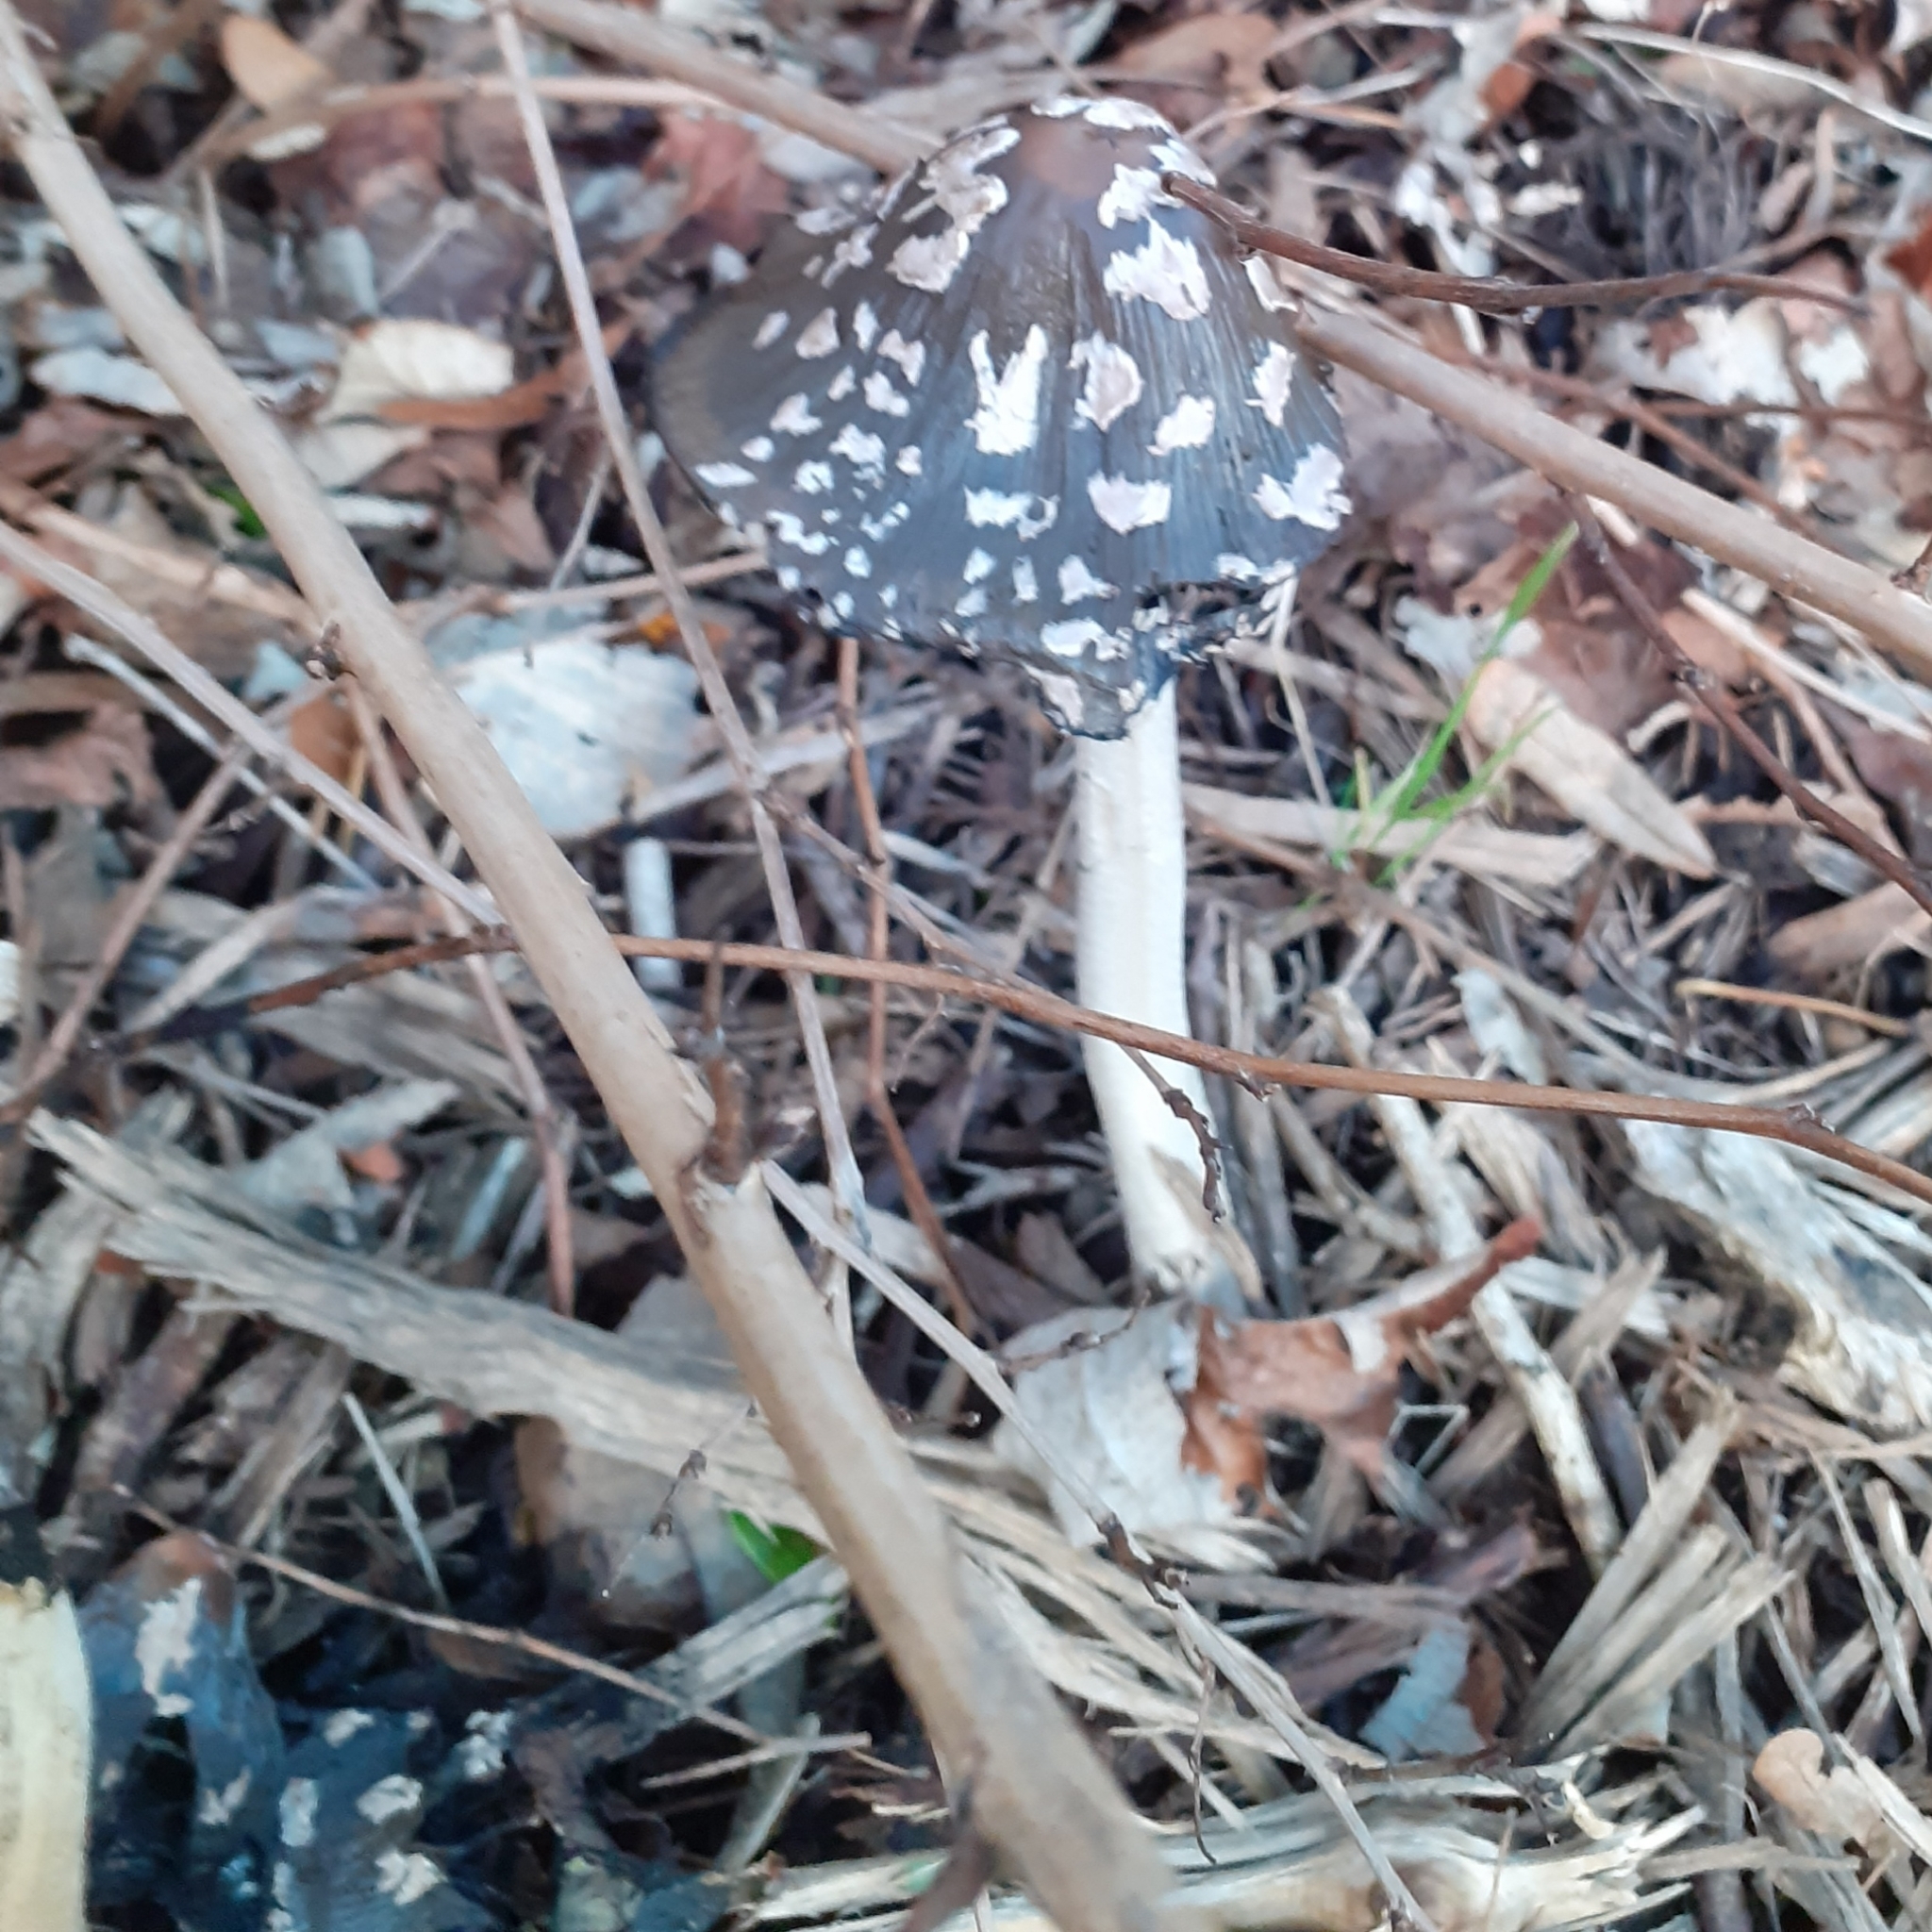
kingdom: Fungi
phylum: Basidiomycota
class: Agaricomycetes
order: Agaricales
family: Psathyrellaceae
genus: Coprinopsis
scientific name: Coprinopsis picacea
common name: Magpie inkcap
